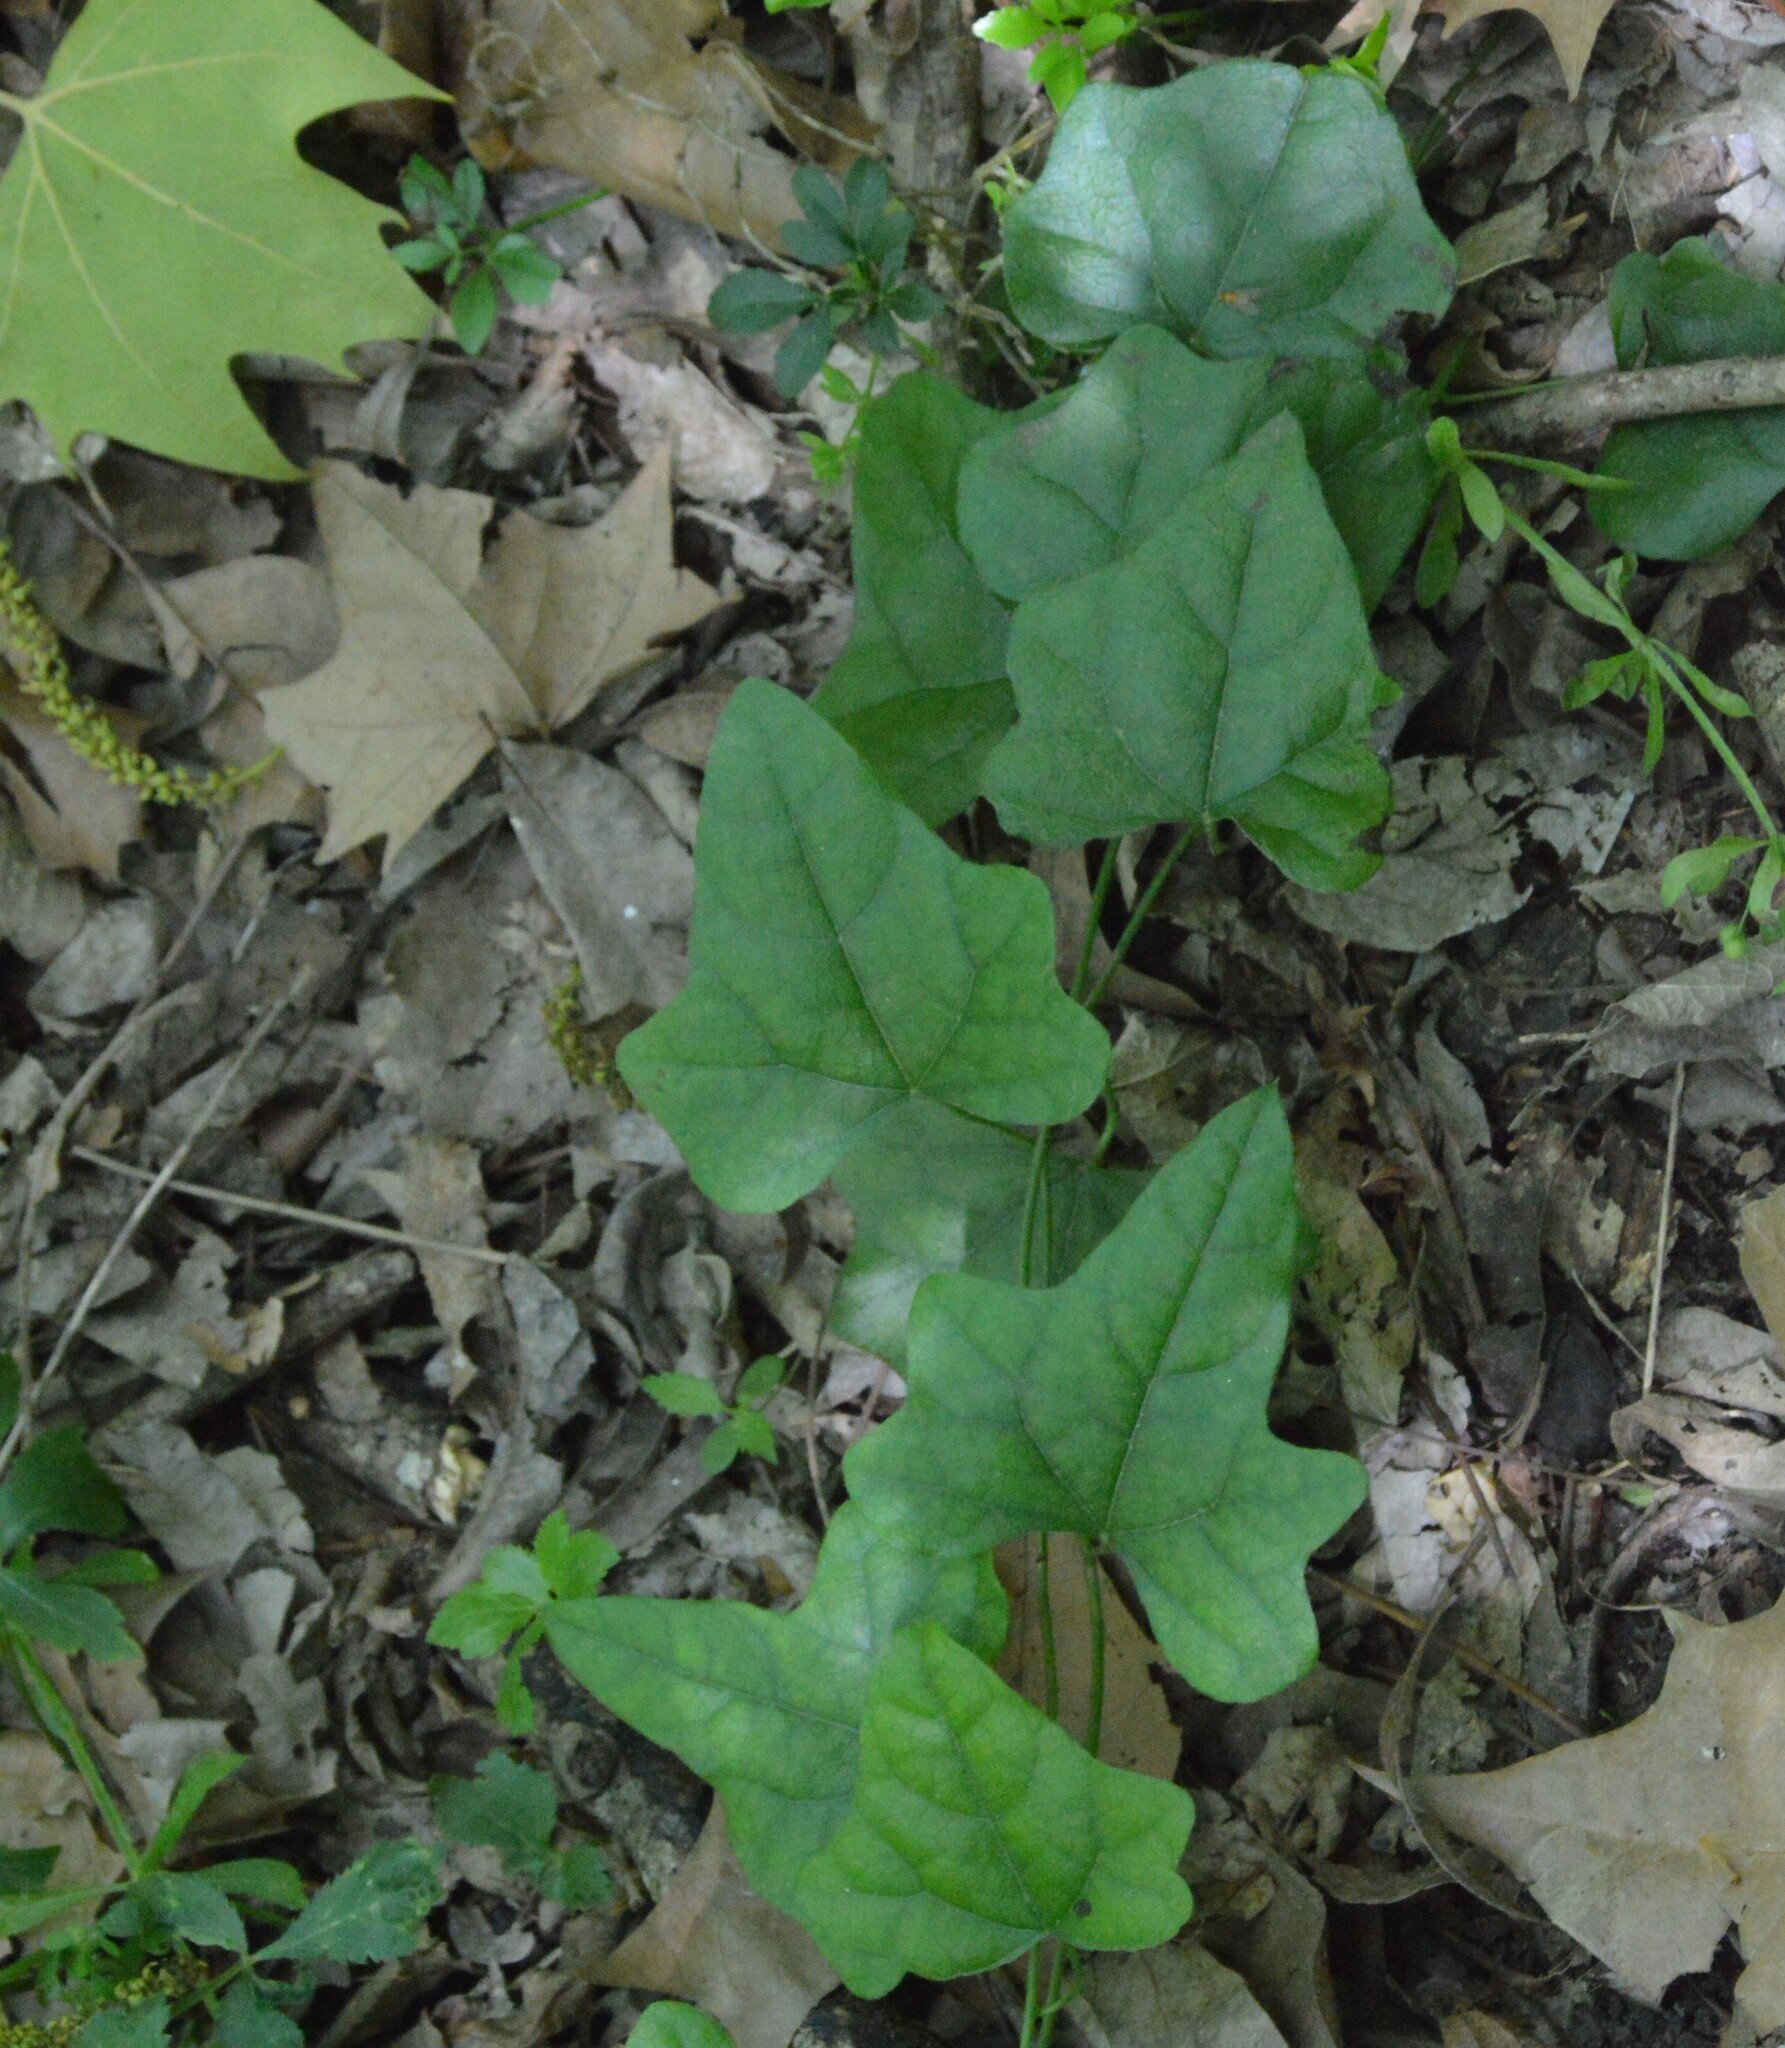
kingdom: Plantae
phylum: Tracheophyta
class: Magnoliopsida
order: Ranunculales
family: Menispermaceae
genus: Cocculus
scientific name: Cocculus carolinus
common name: Carolina moonseed
